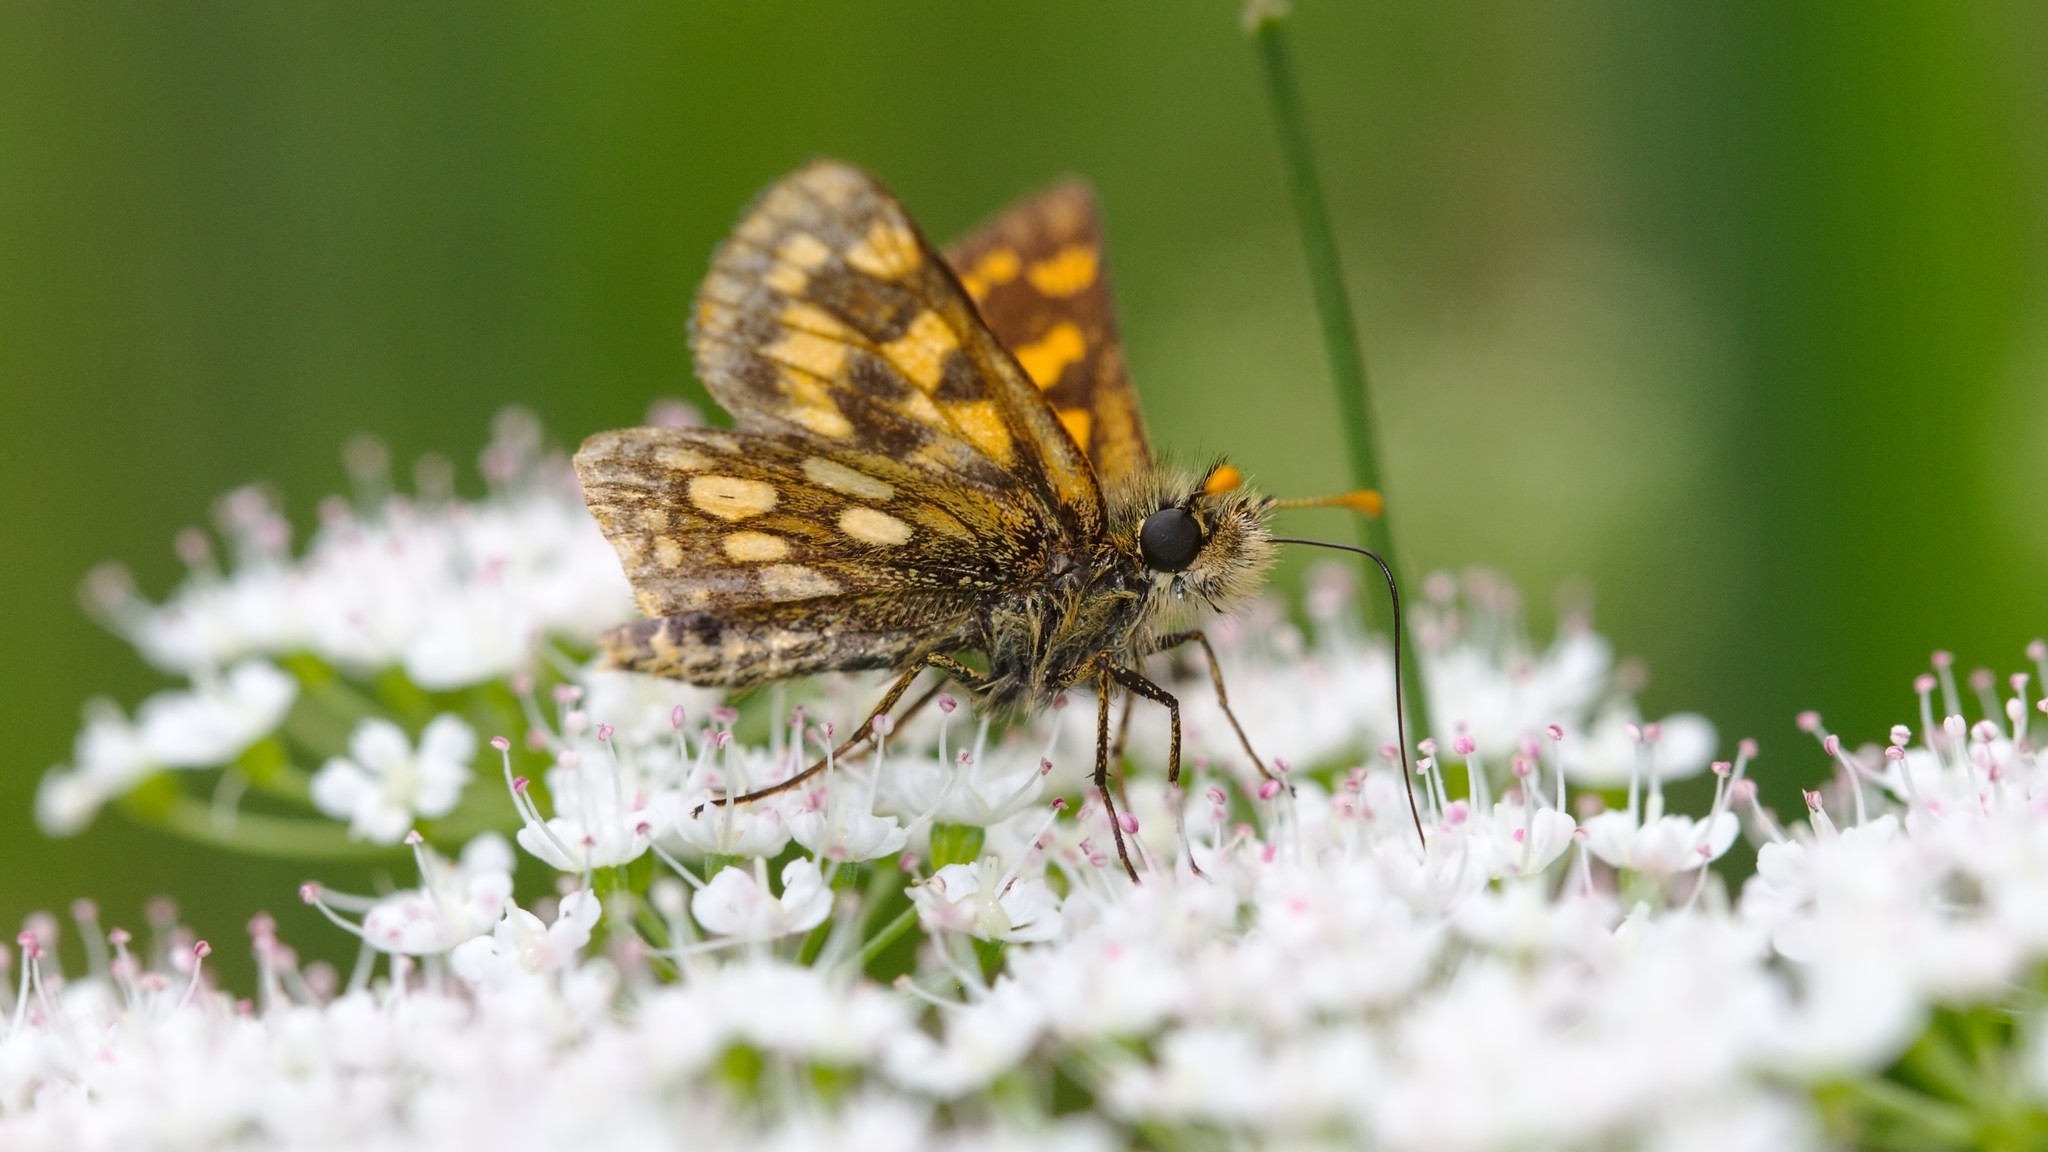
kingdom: Animalia
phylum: Arthropoda
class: Insecta
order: Lepidoptera
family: Hesperiidae
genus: Carterocephalus
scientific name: Carterocephalus palaemon
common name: Chequered skipper
